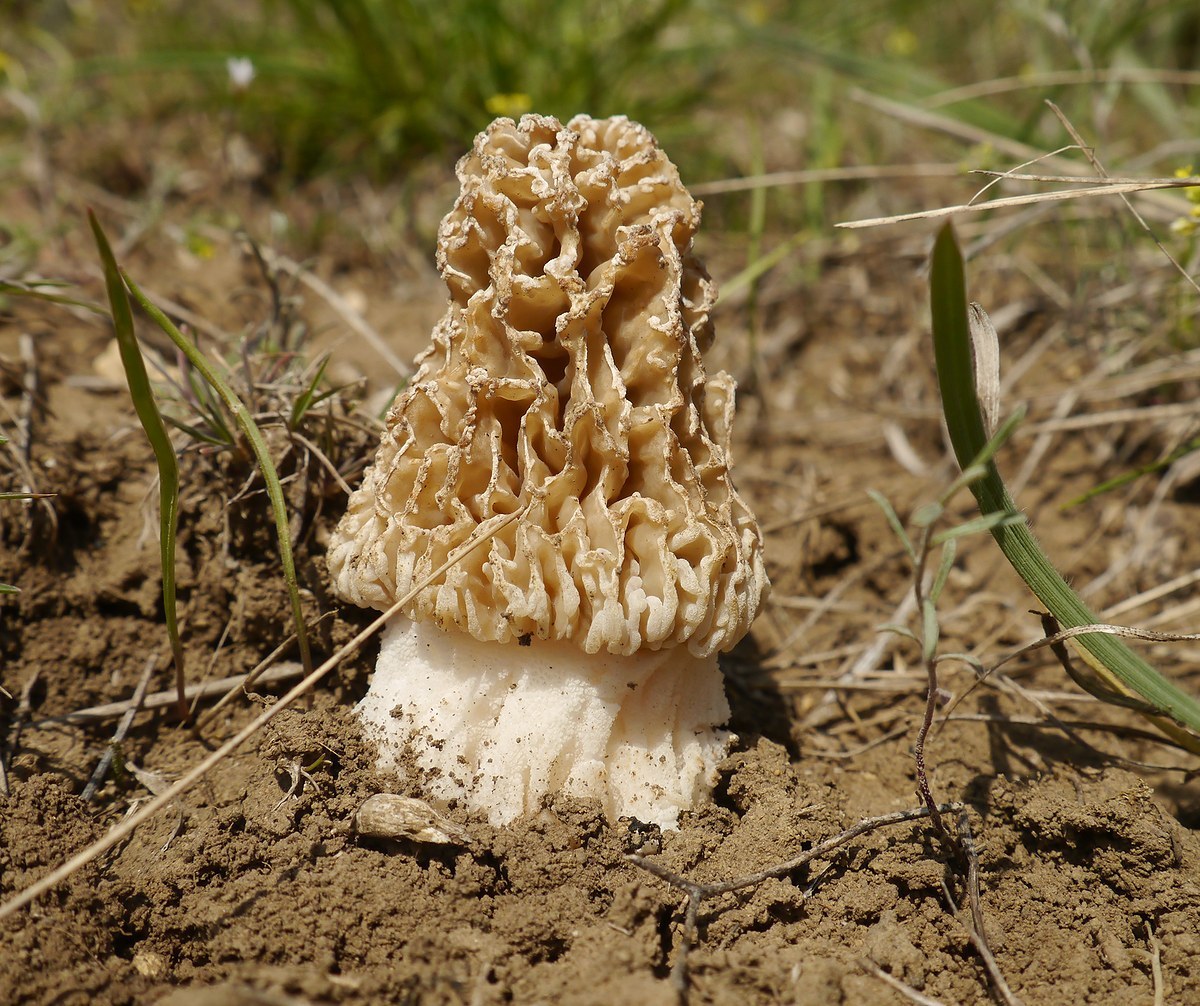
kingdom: Fungi
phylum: Ascomycota
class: Pezizomycetes
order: Pezizales
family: Morchellaceae
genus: Morchella
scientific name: Morchella steppicola
